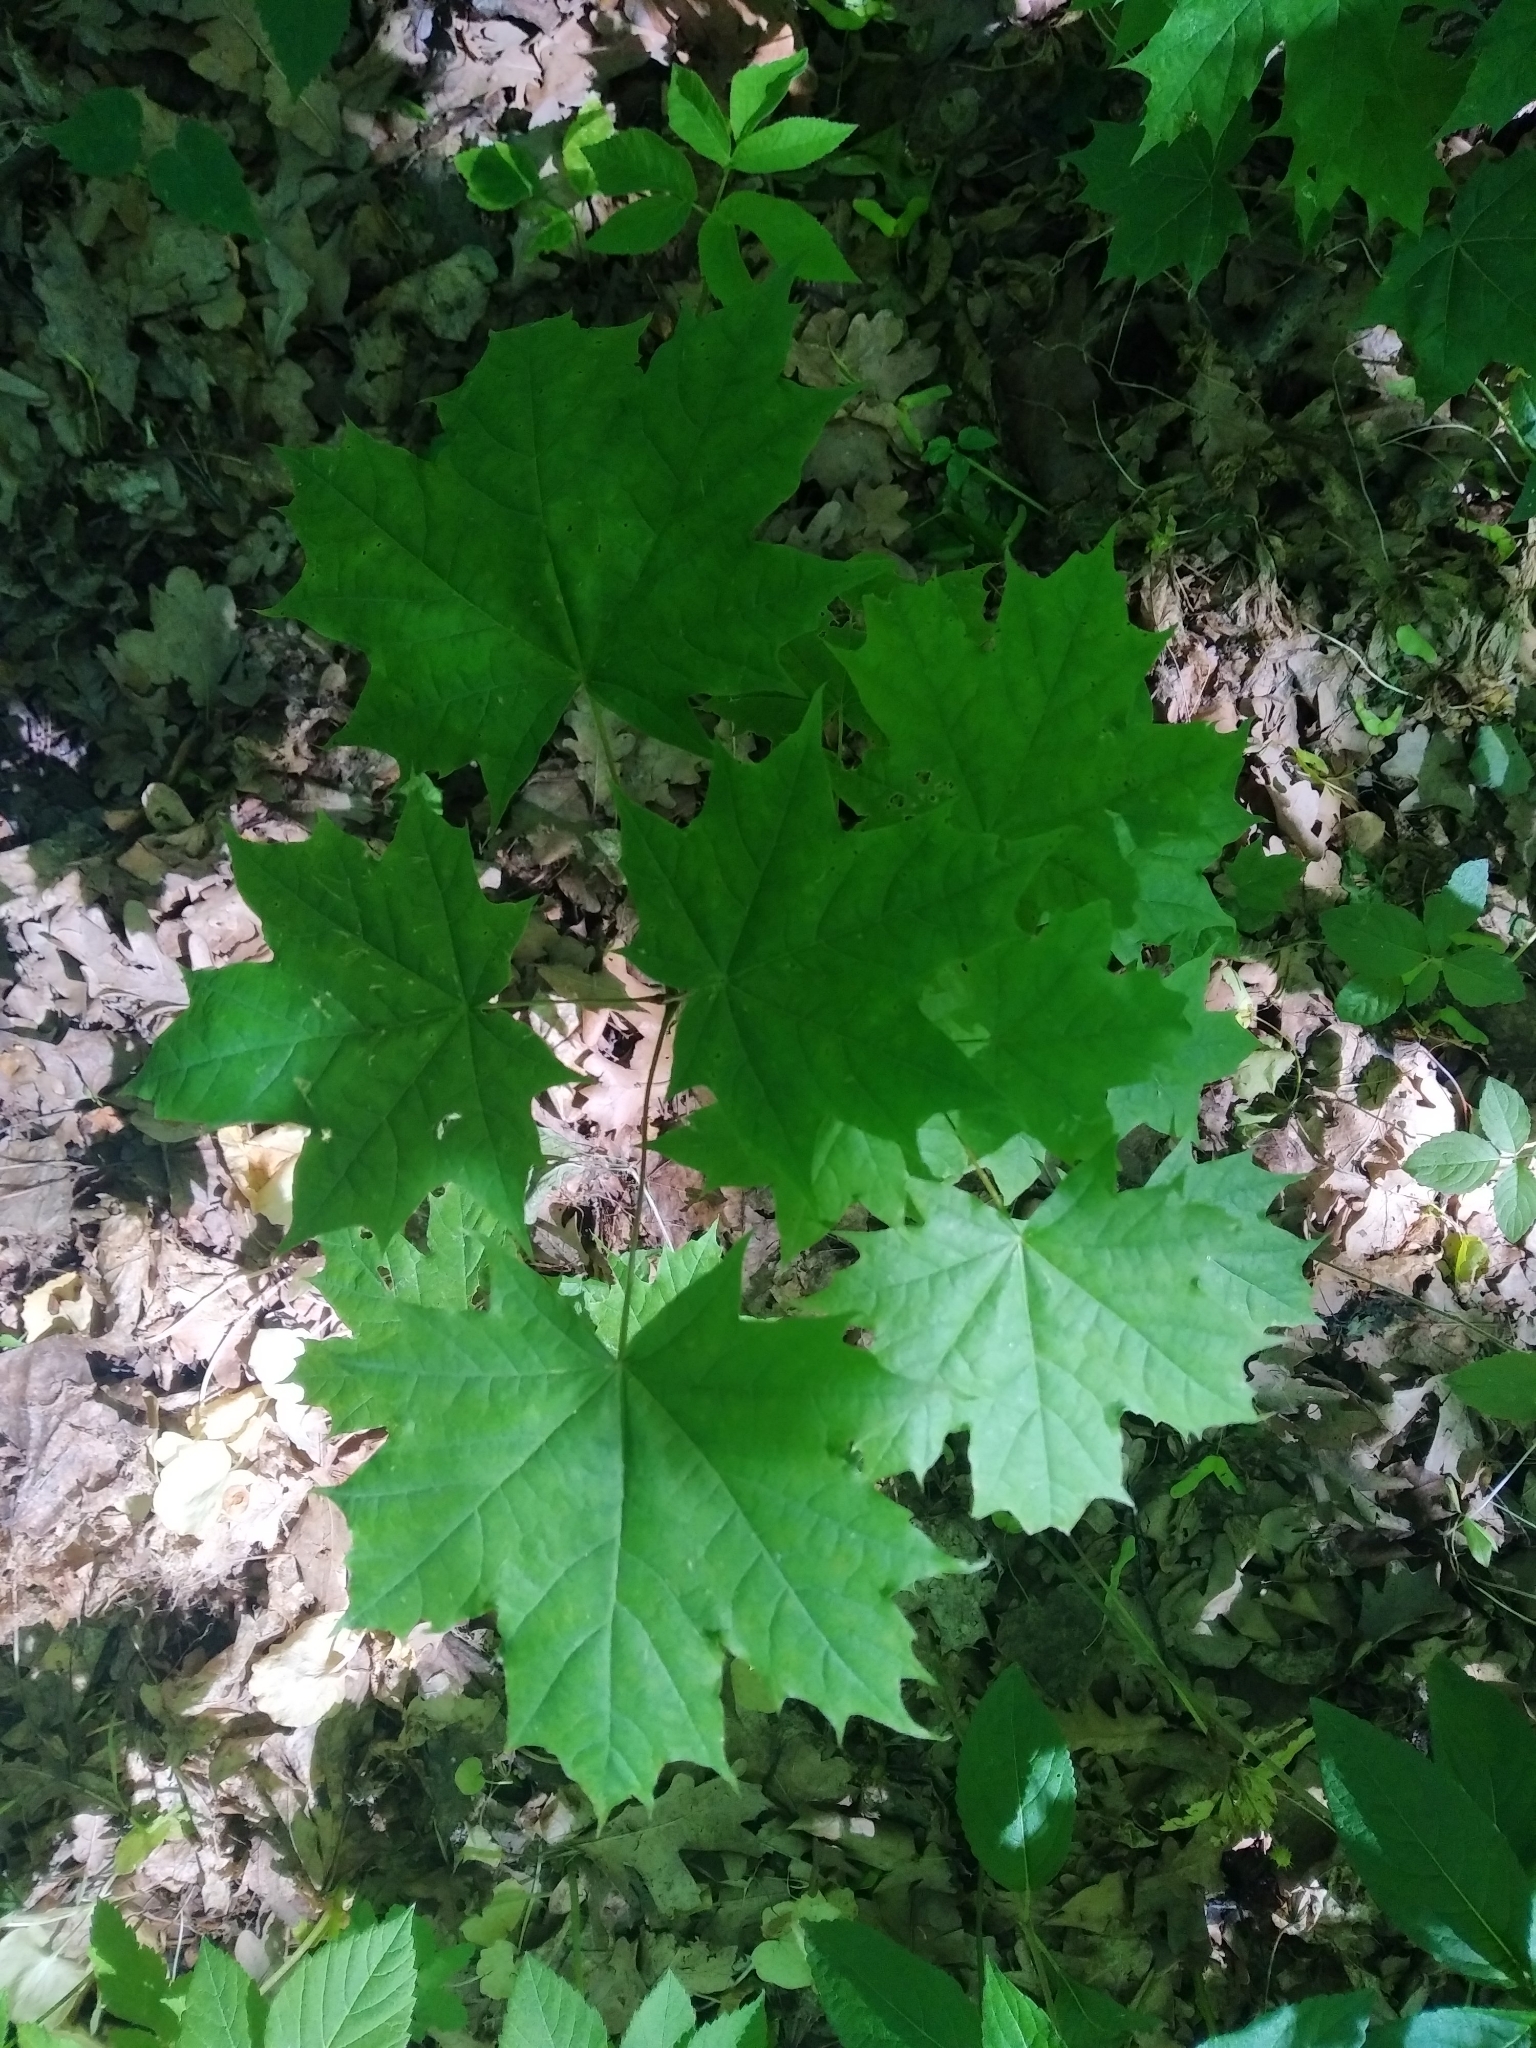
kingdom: Plantae
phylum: Tracheophyta
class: Magnoliopsida
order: Sapindales
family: Sapindaceae
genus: Acer
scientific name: Acer platanoides
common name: Norway maple
